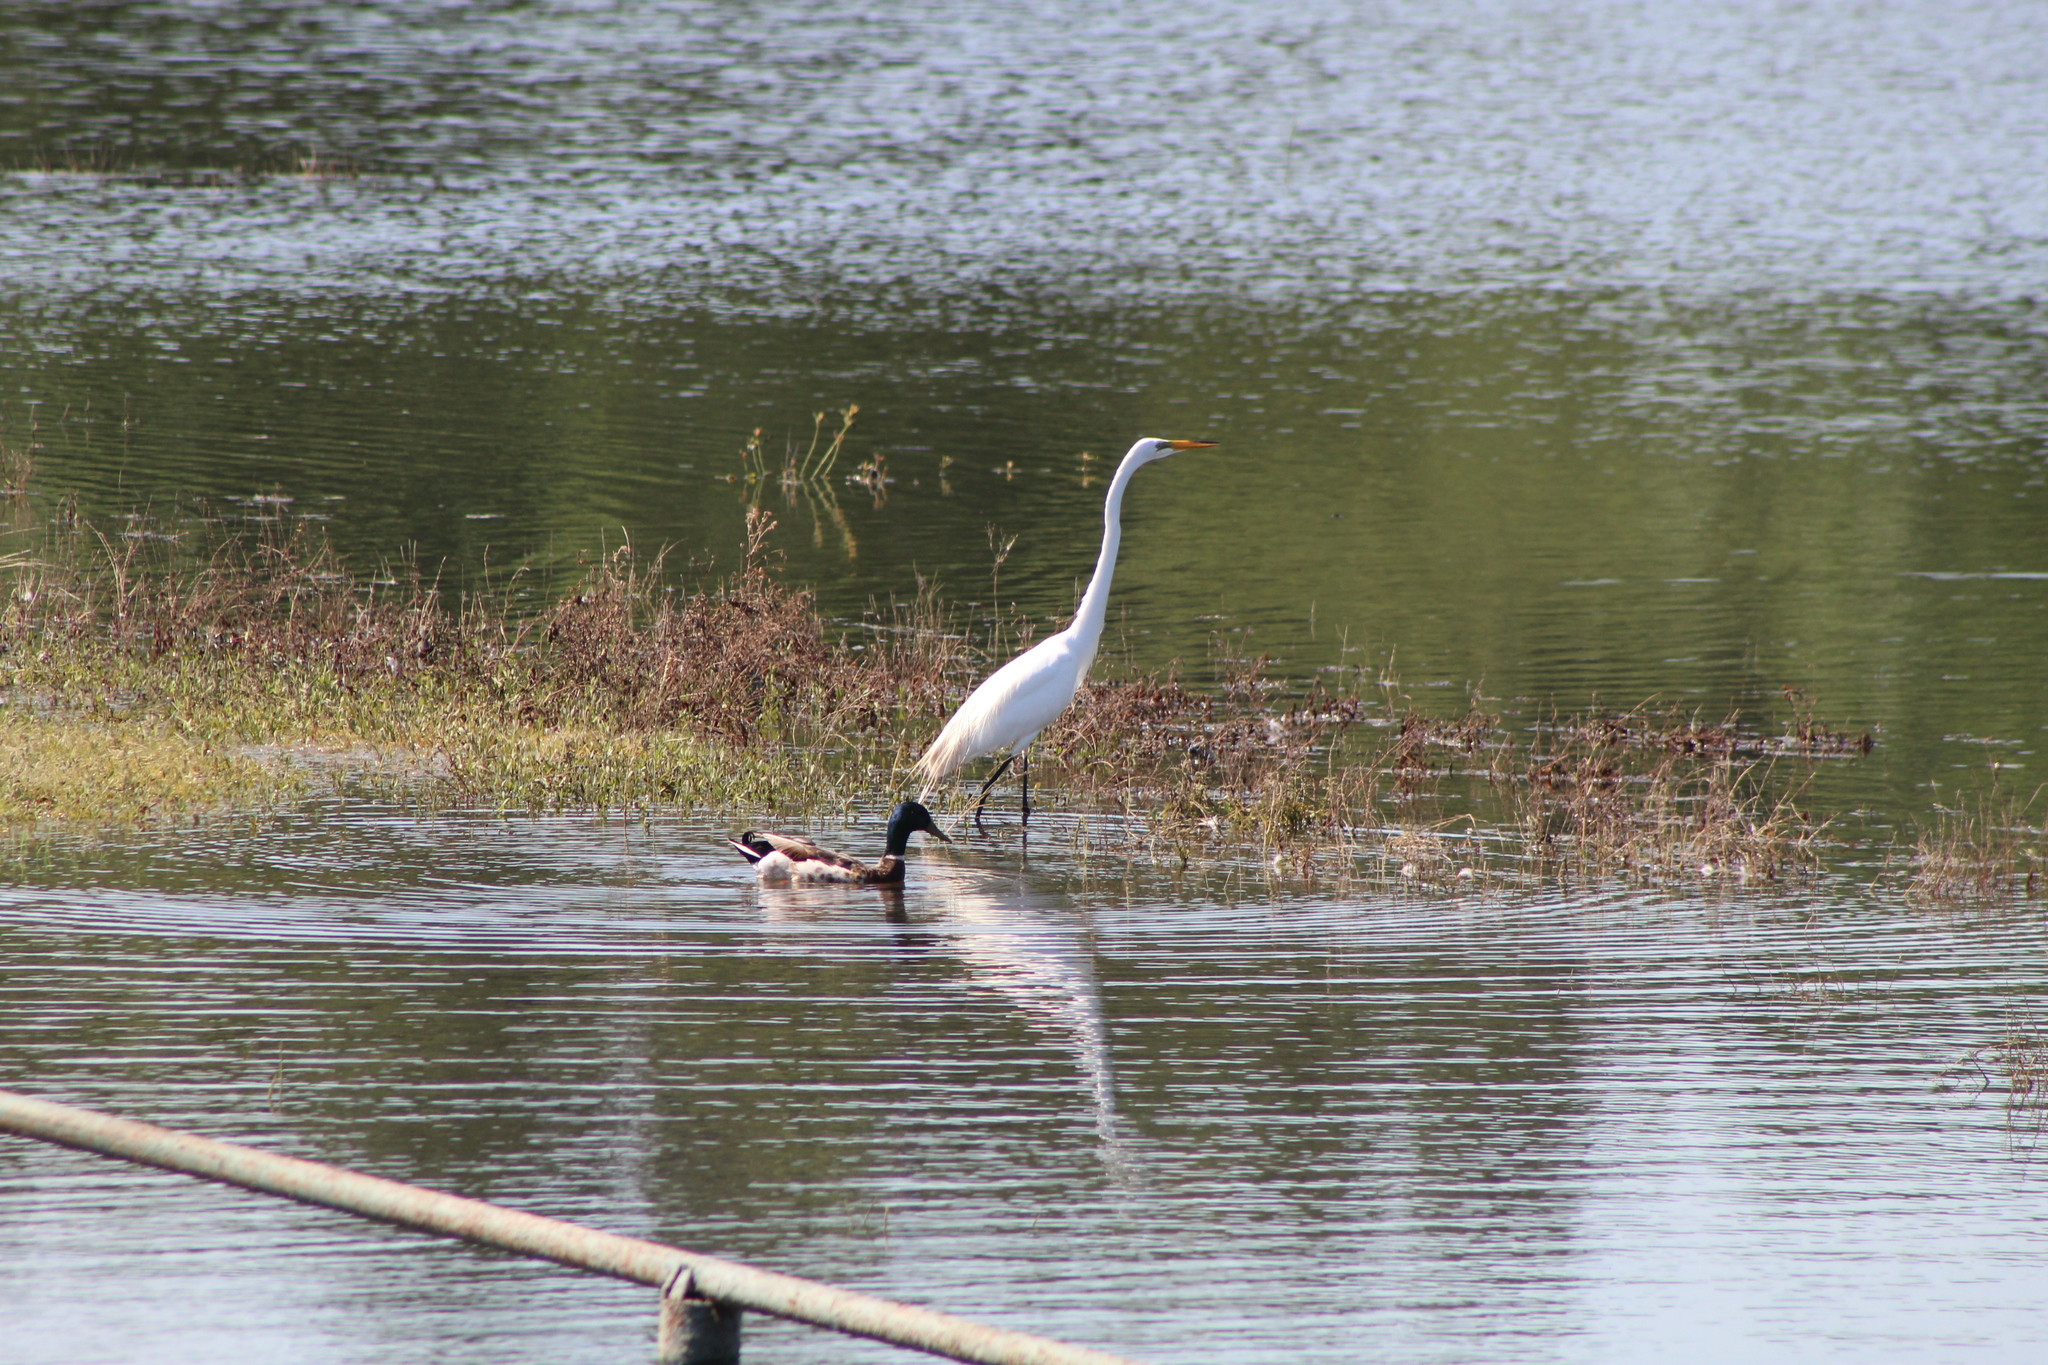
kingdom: Animalia
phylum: Chordata
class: Aves
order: Pelecaniformes
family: Ardeidae
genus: Ardea
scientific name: Ardea alba
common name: Great egret
